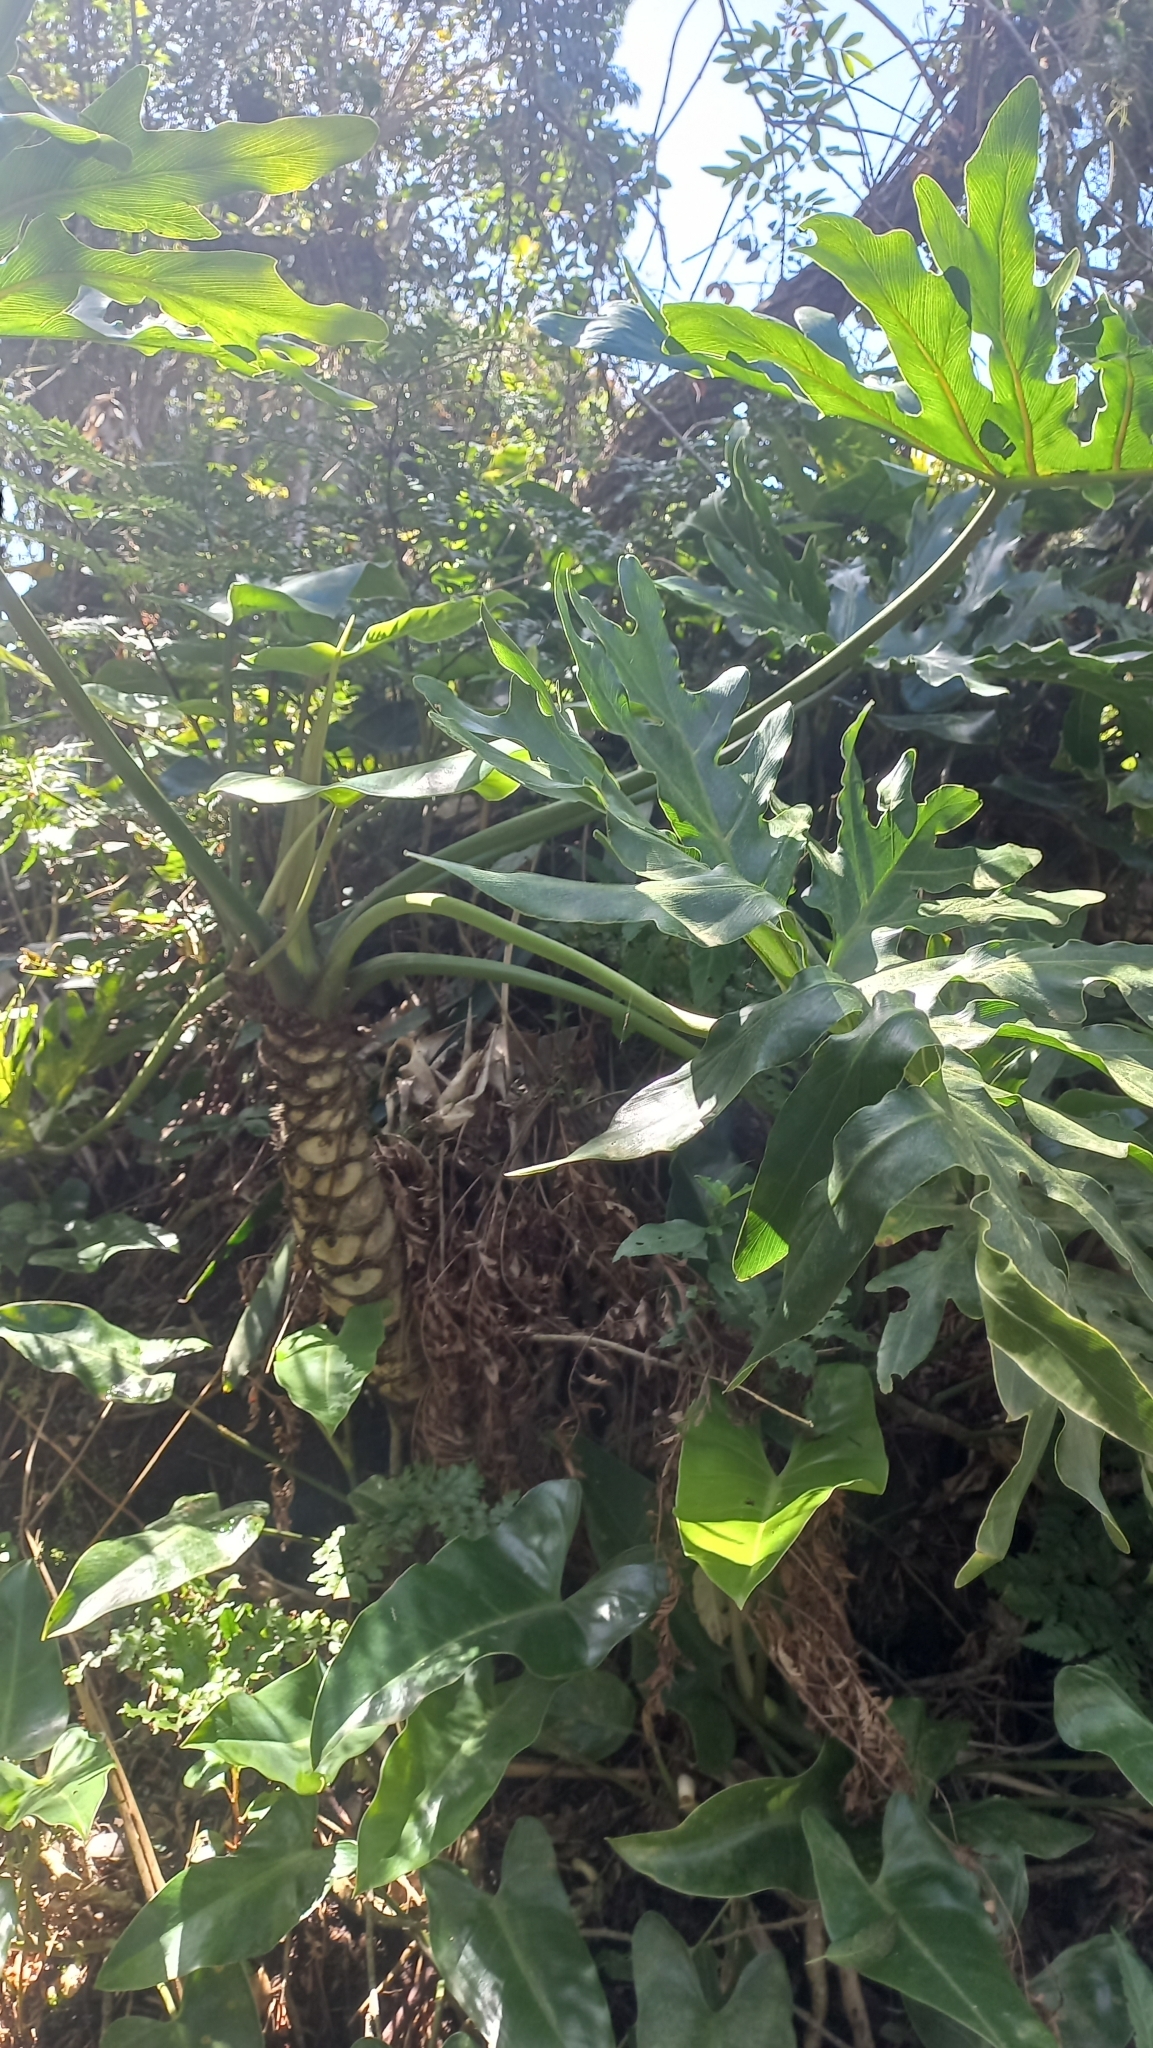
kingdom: Plantae
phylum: Tracheophyta
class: Liliopsida
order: Alismatales
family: Araceae
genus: Thaumatophyllum
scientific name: Thaumatophyllum bipinnatifidum
